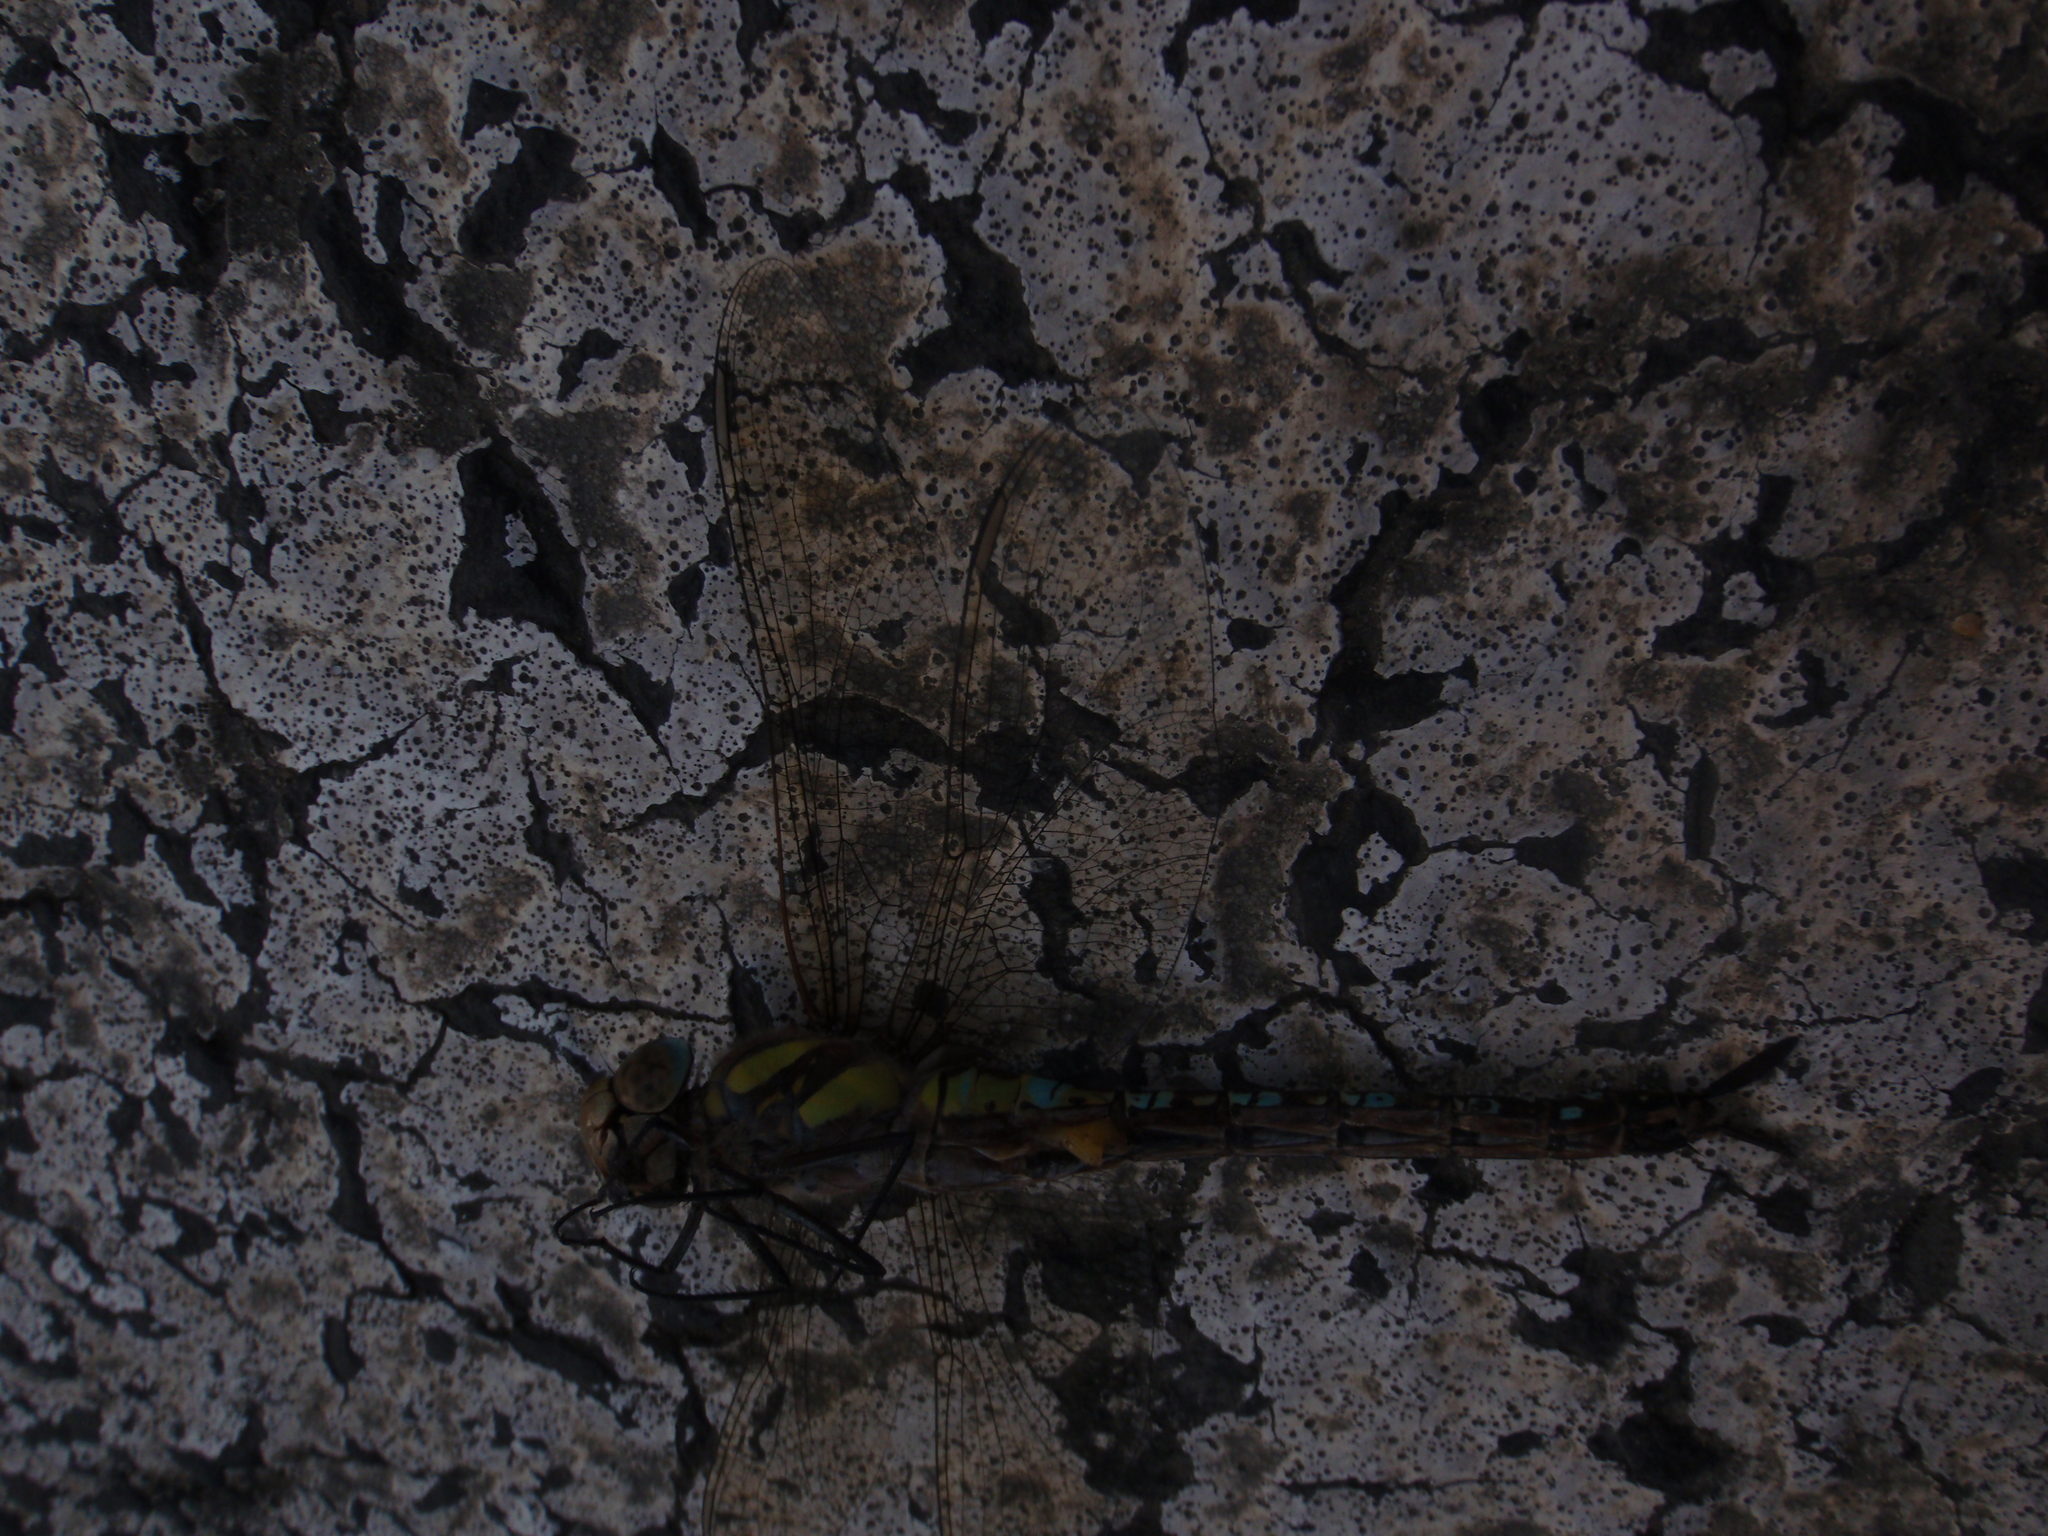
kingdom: Animalia
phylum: Arthropoda
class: Insecta
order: Odonata
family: Aeshnidae
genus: Aeshna
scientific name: Aeshna mixta
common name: Migrant hawker
